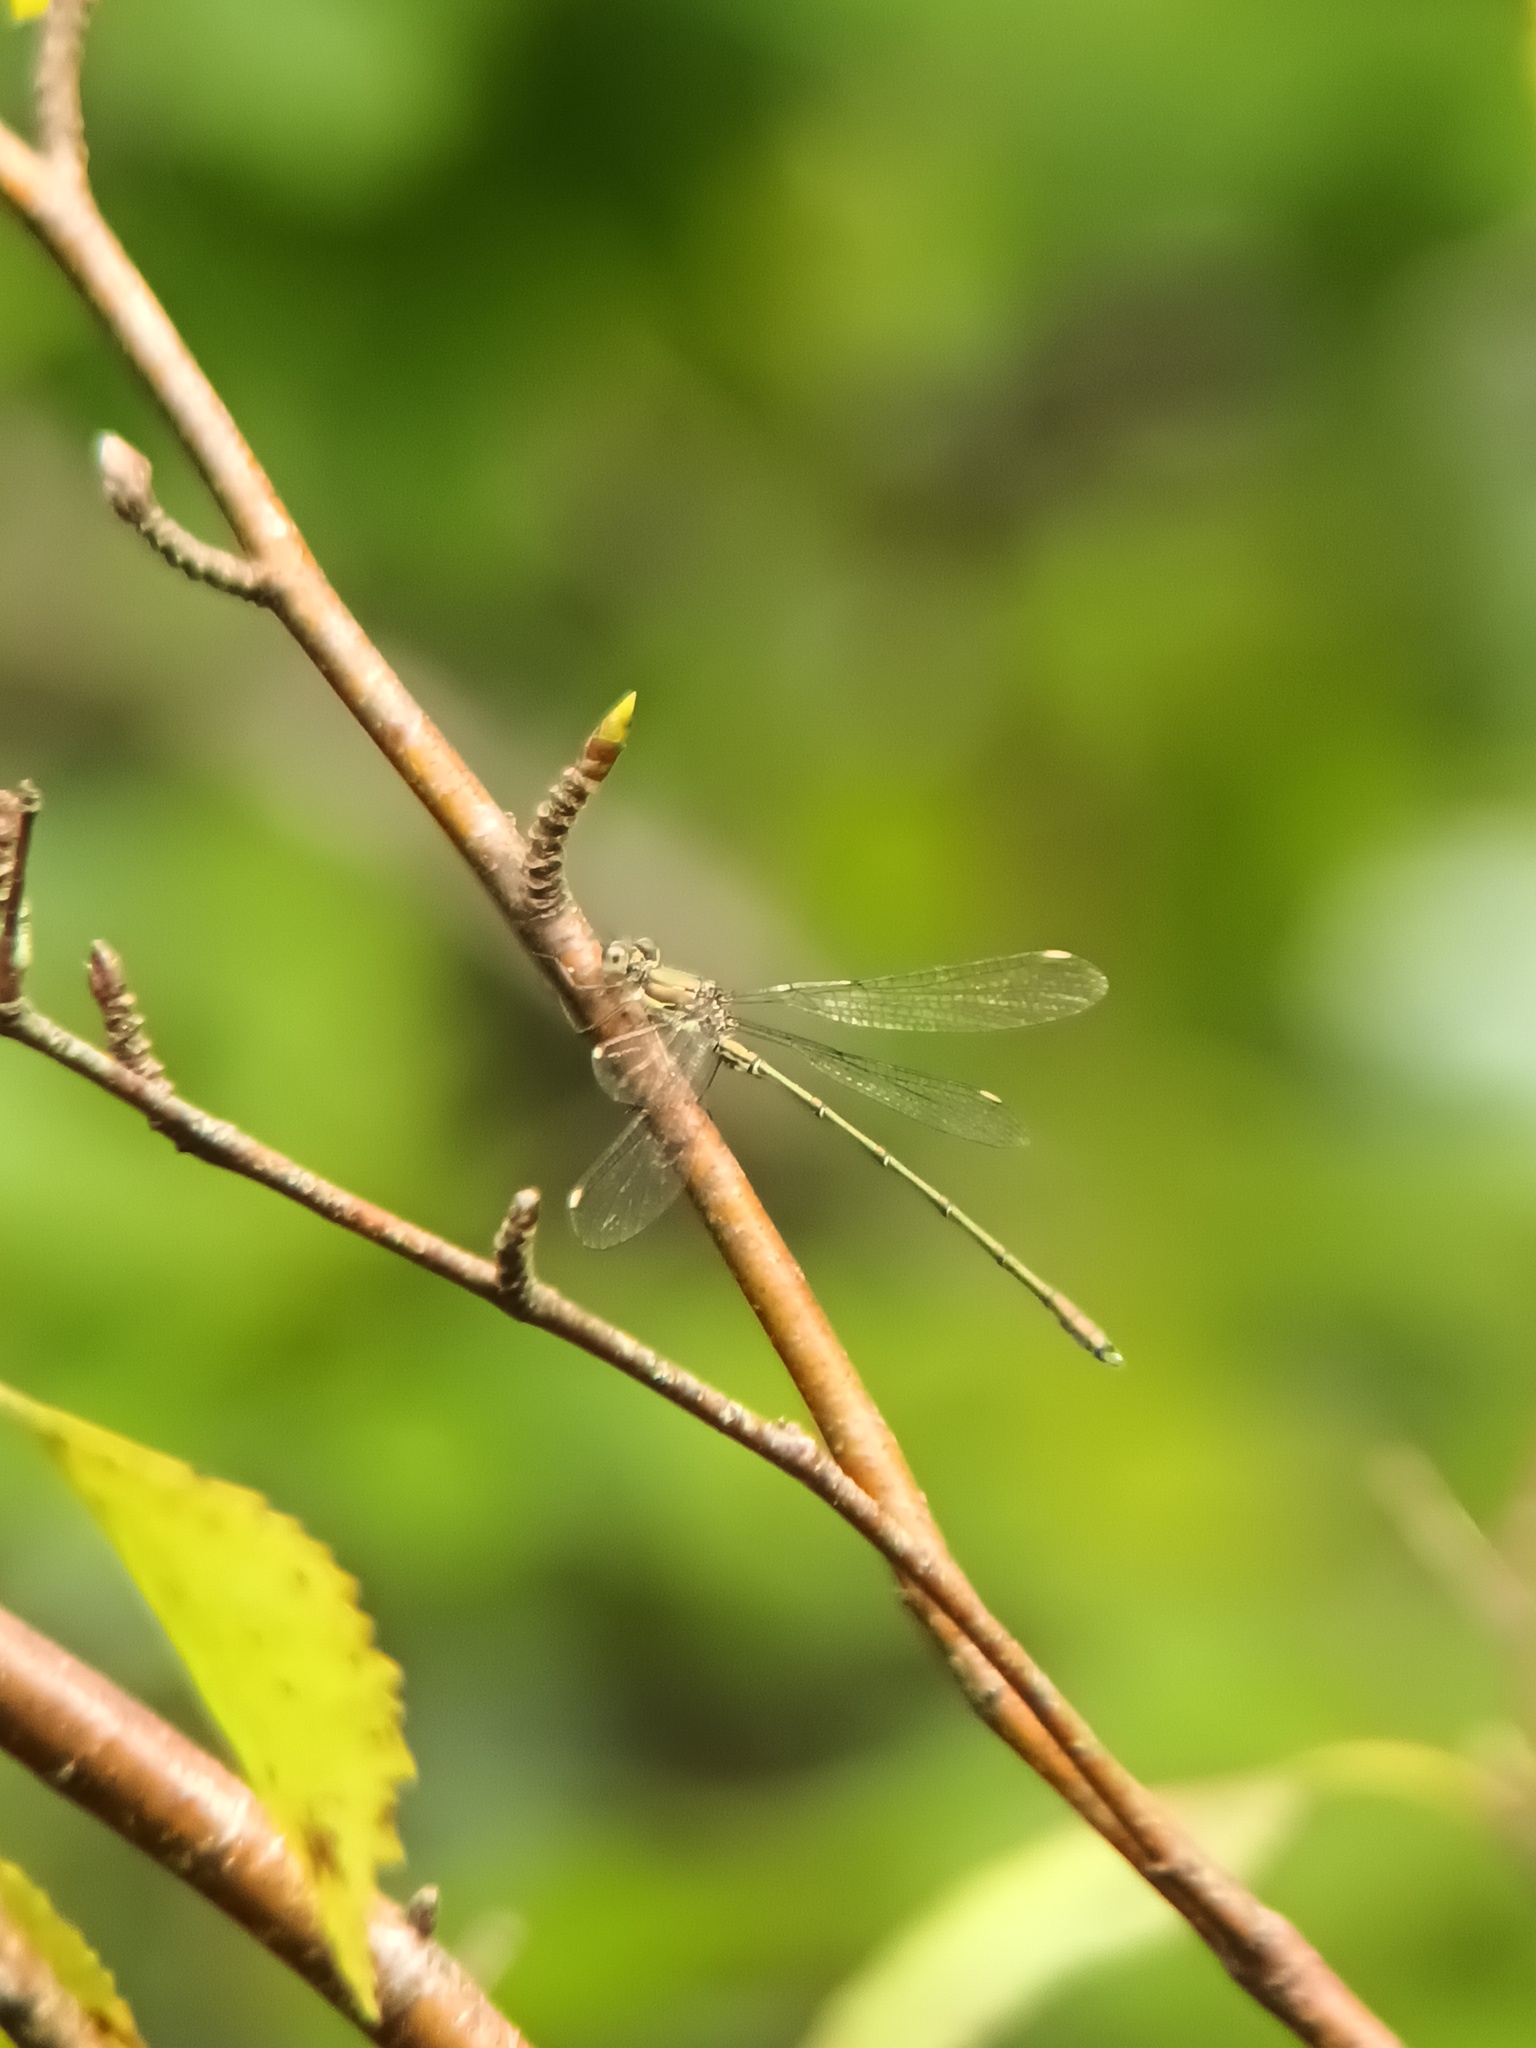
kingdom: Animalia
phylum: Arthropoda
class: Insecta
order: Odonata
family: Lestidae
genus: Chalcolestes
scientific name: Chalcolestes viridis
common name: Green emerald damselfly
